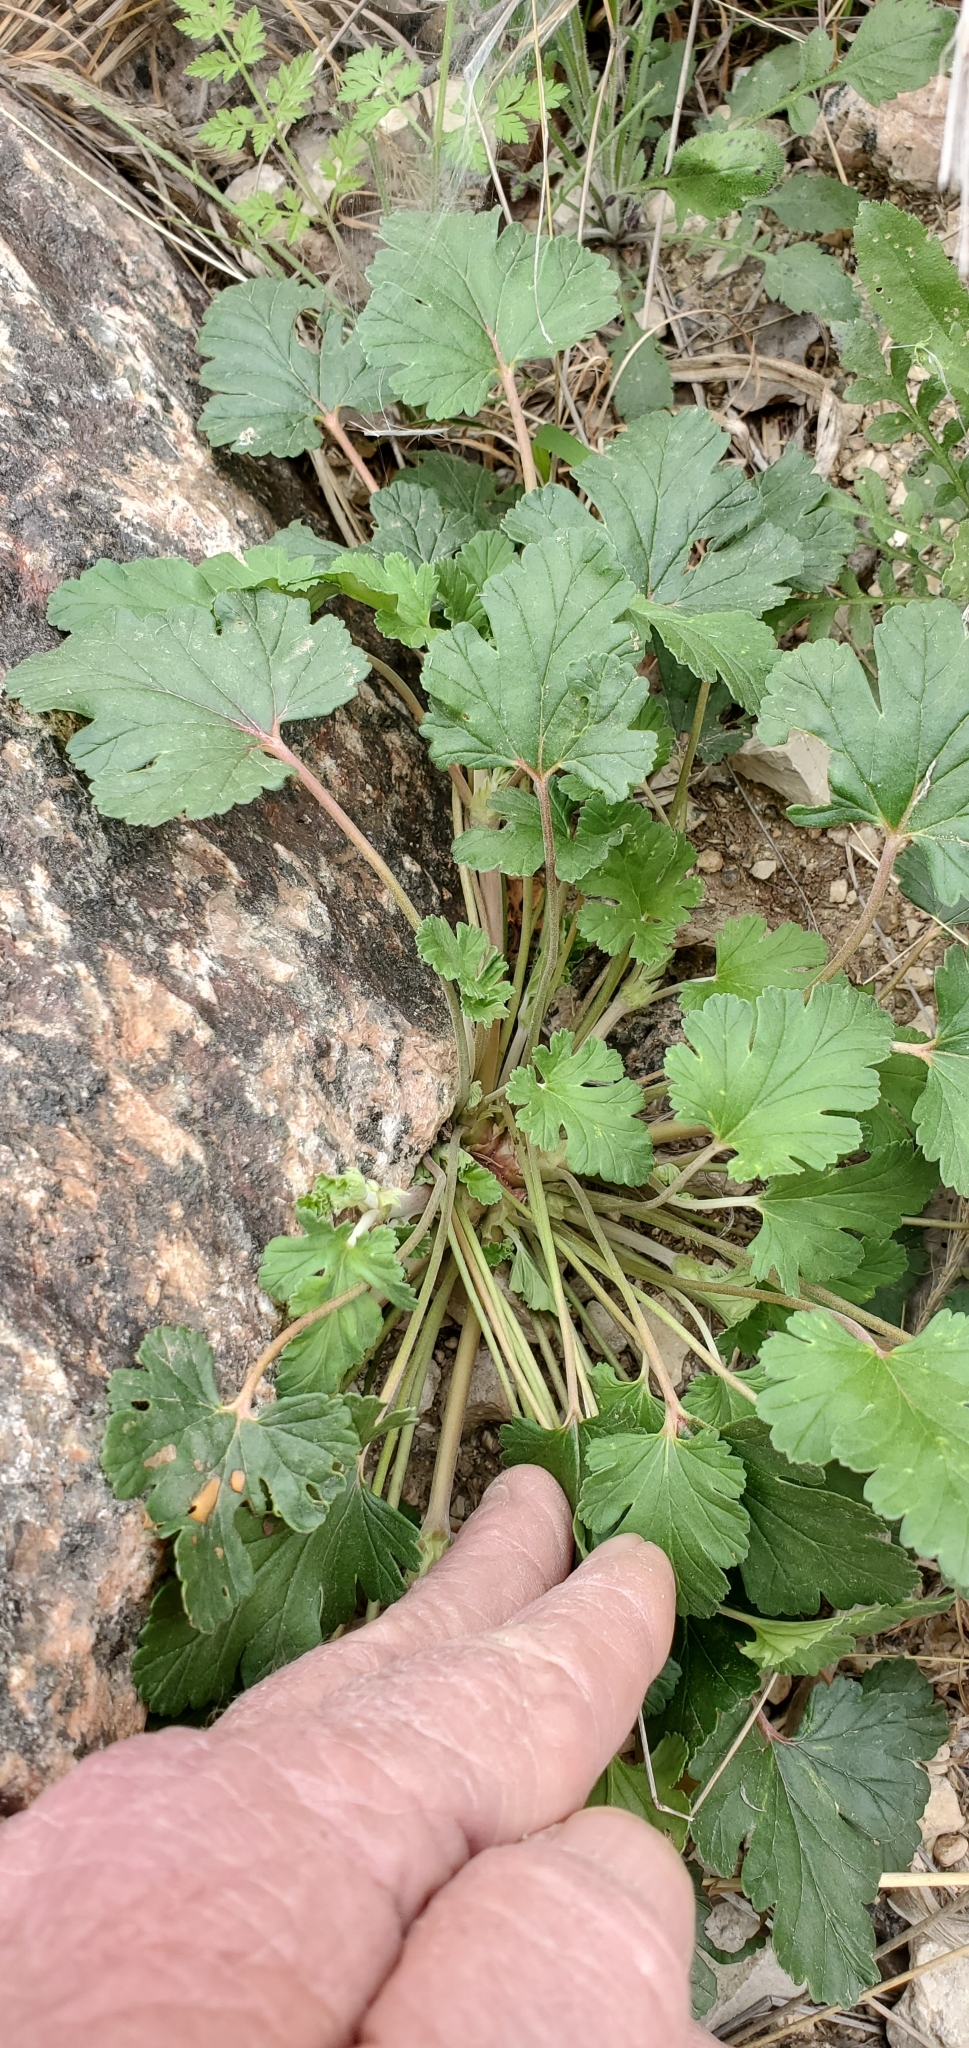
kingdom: Plantae
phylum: Tracheophyta
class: Magnoliopsida
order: Geraniales
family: Geraniaceae
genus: Erodium
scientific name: Erodium texanum
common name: Texas stork's-bill
